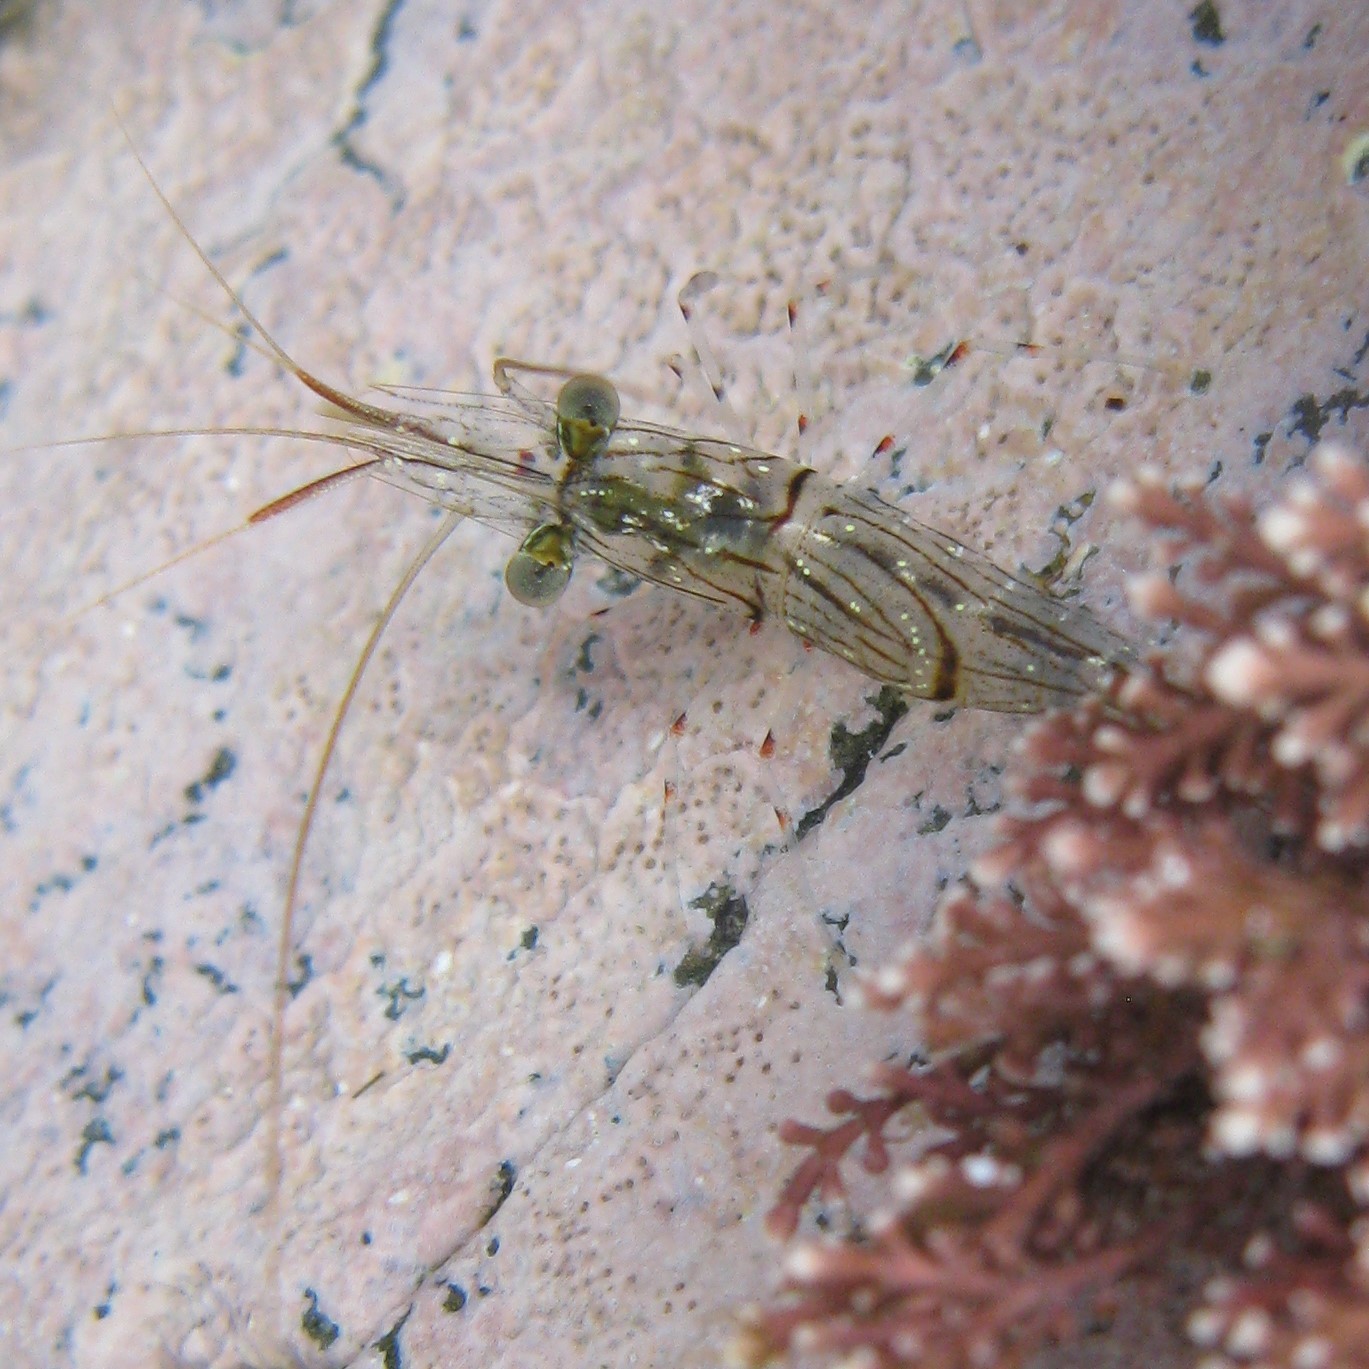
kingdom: Animalia
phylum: Arthropoda
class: Malacostraca
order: Decapoda
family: Palaemonidae
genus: Palaemon
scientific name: Palaemon affinis
